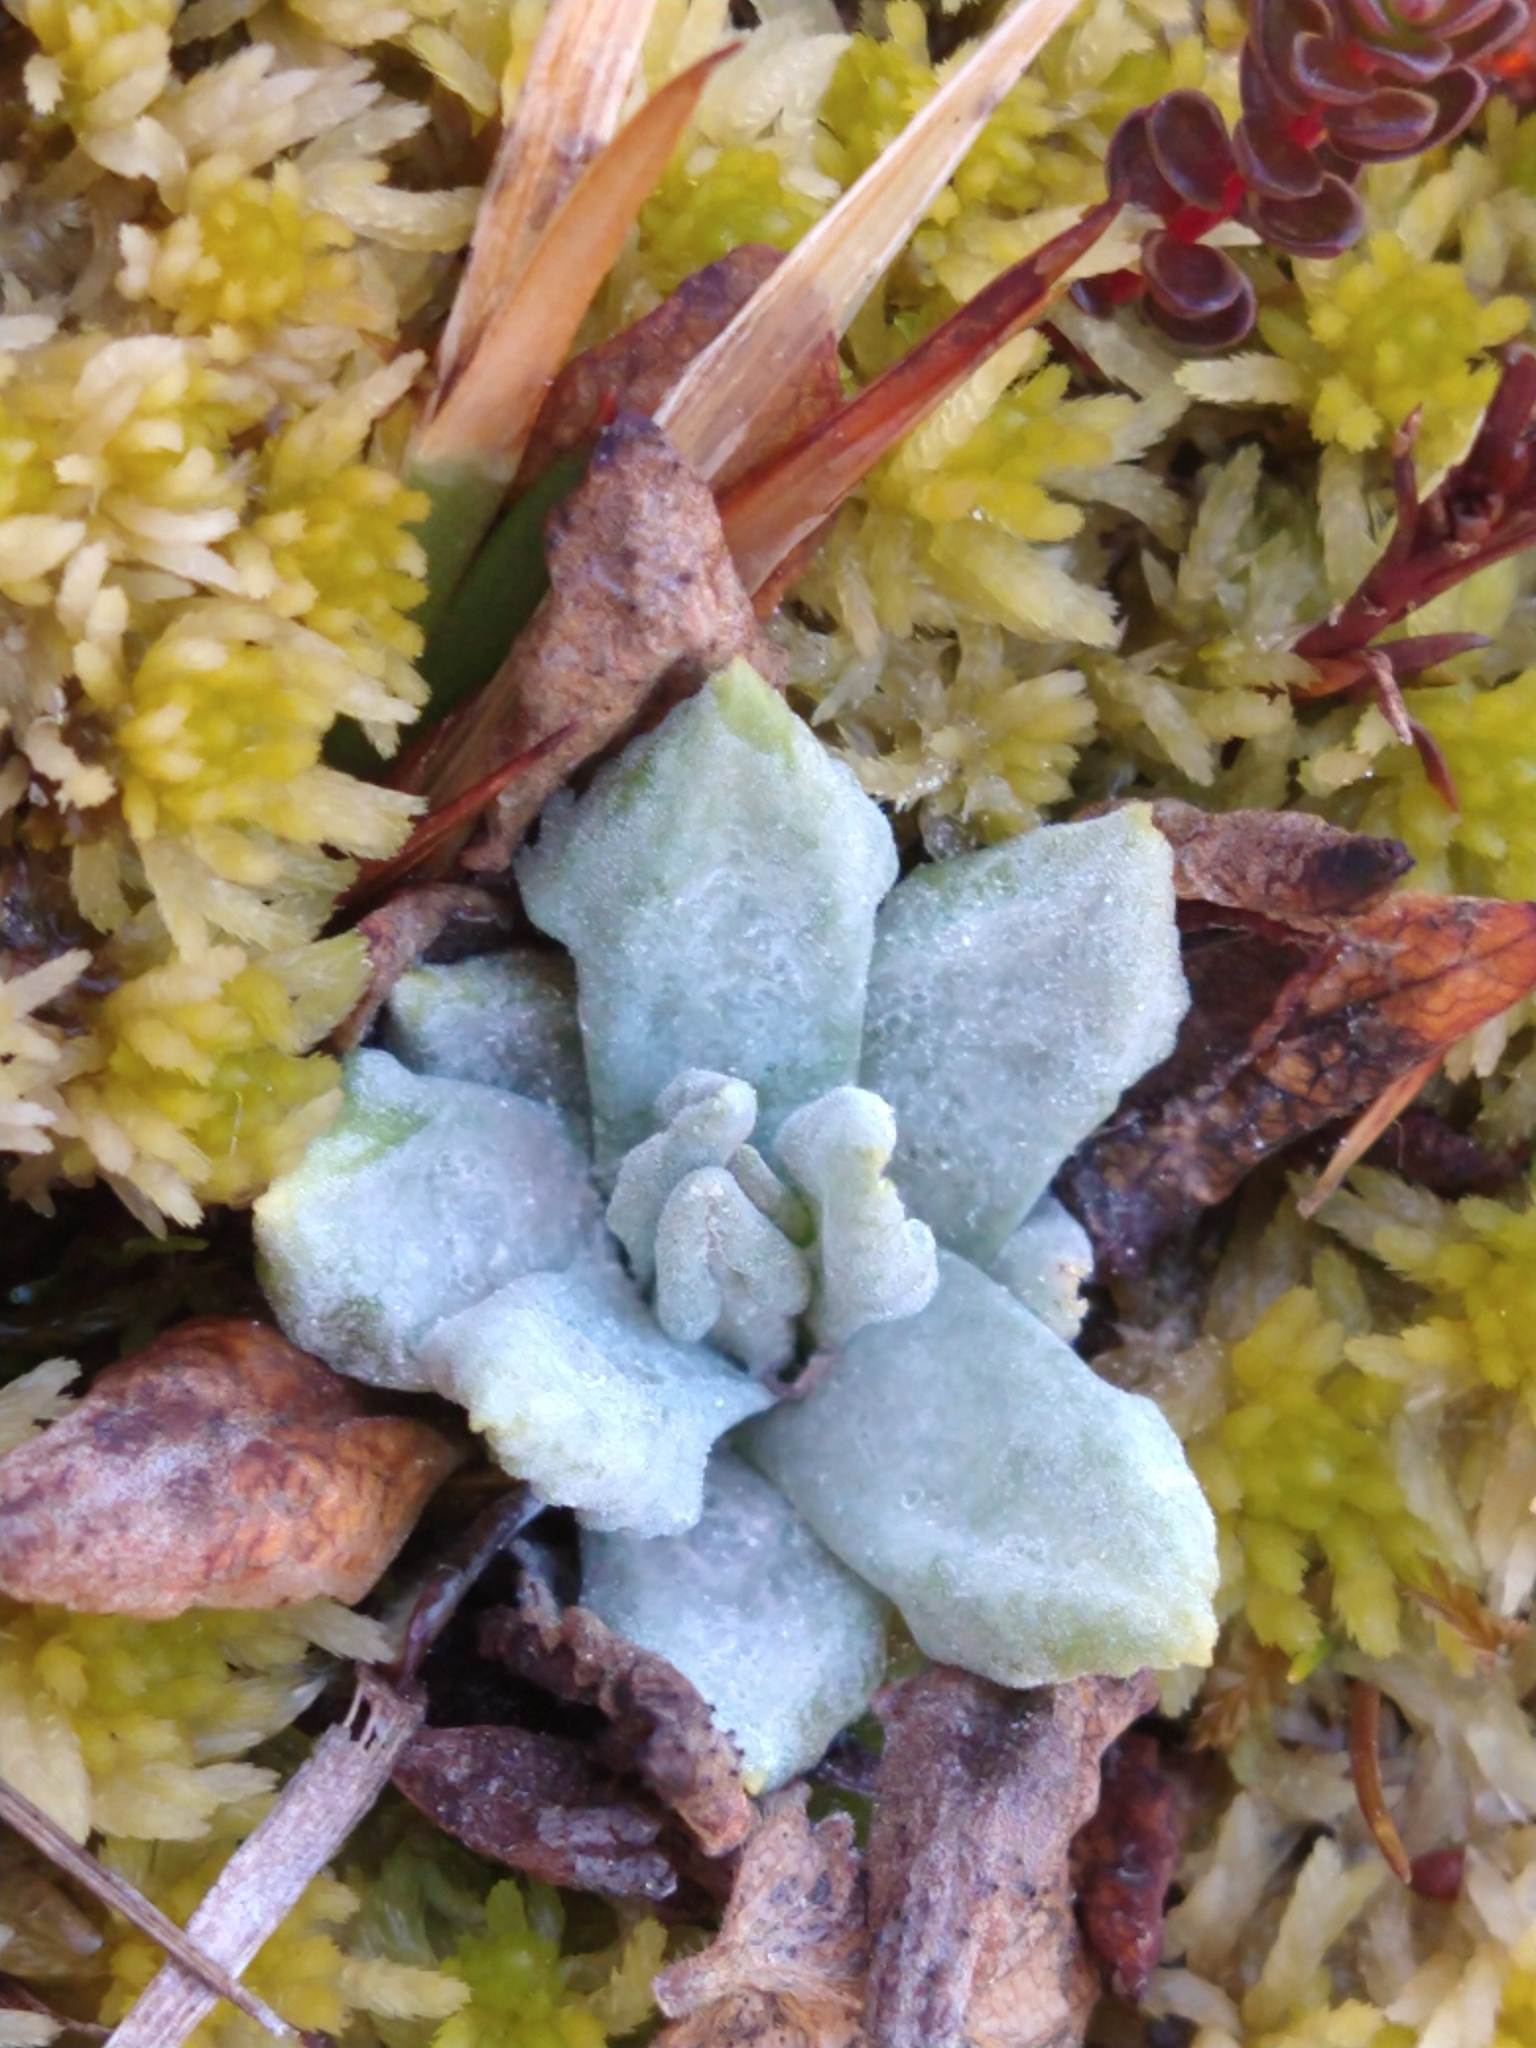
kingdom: Plantae
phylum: Tracheophyta
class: Magnoliopsida
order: Ericales
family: Primulaceae
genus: Primula
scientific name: Primula magellanica
